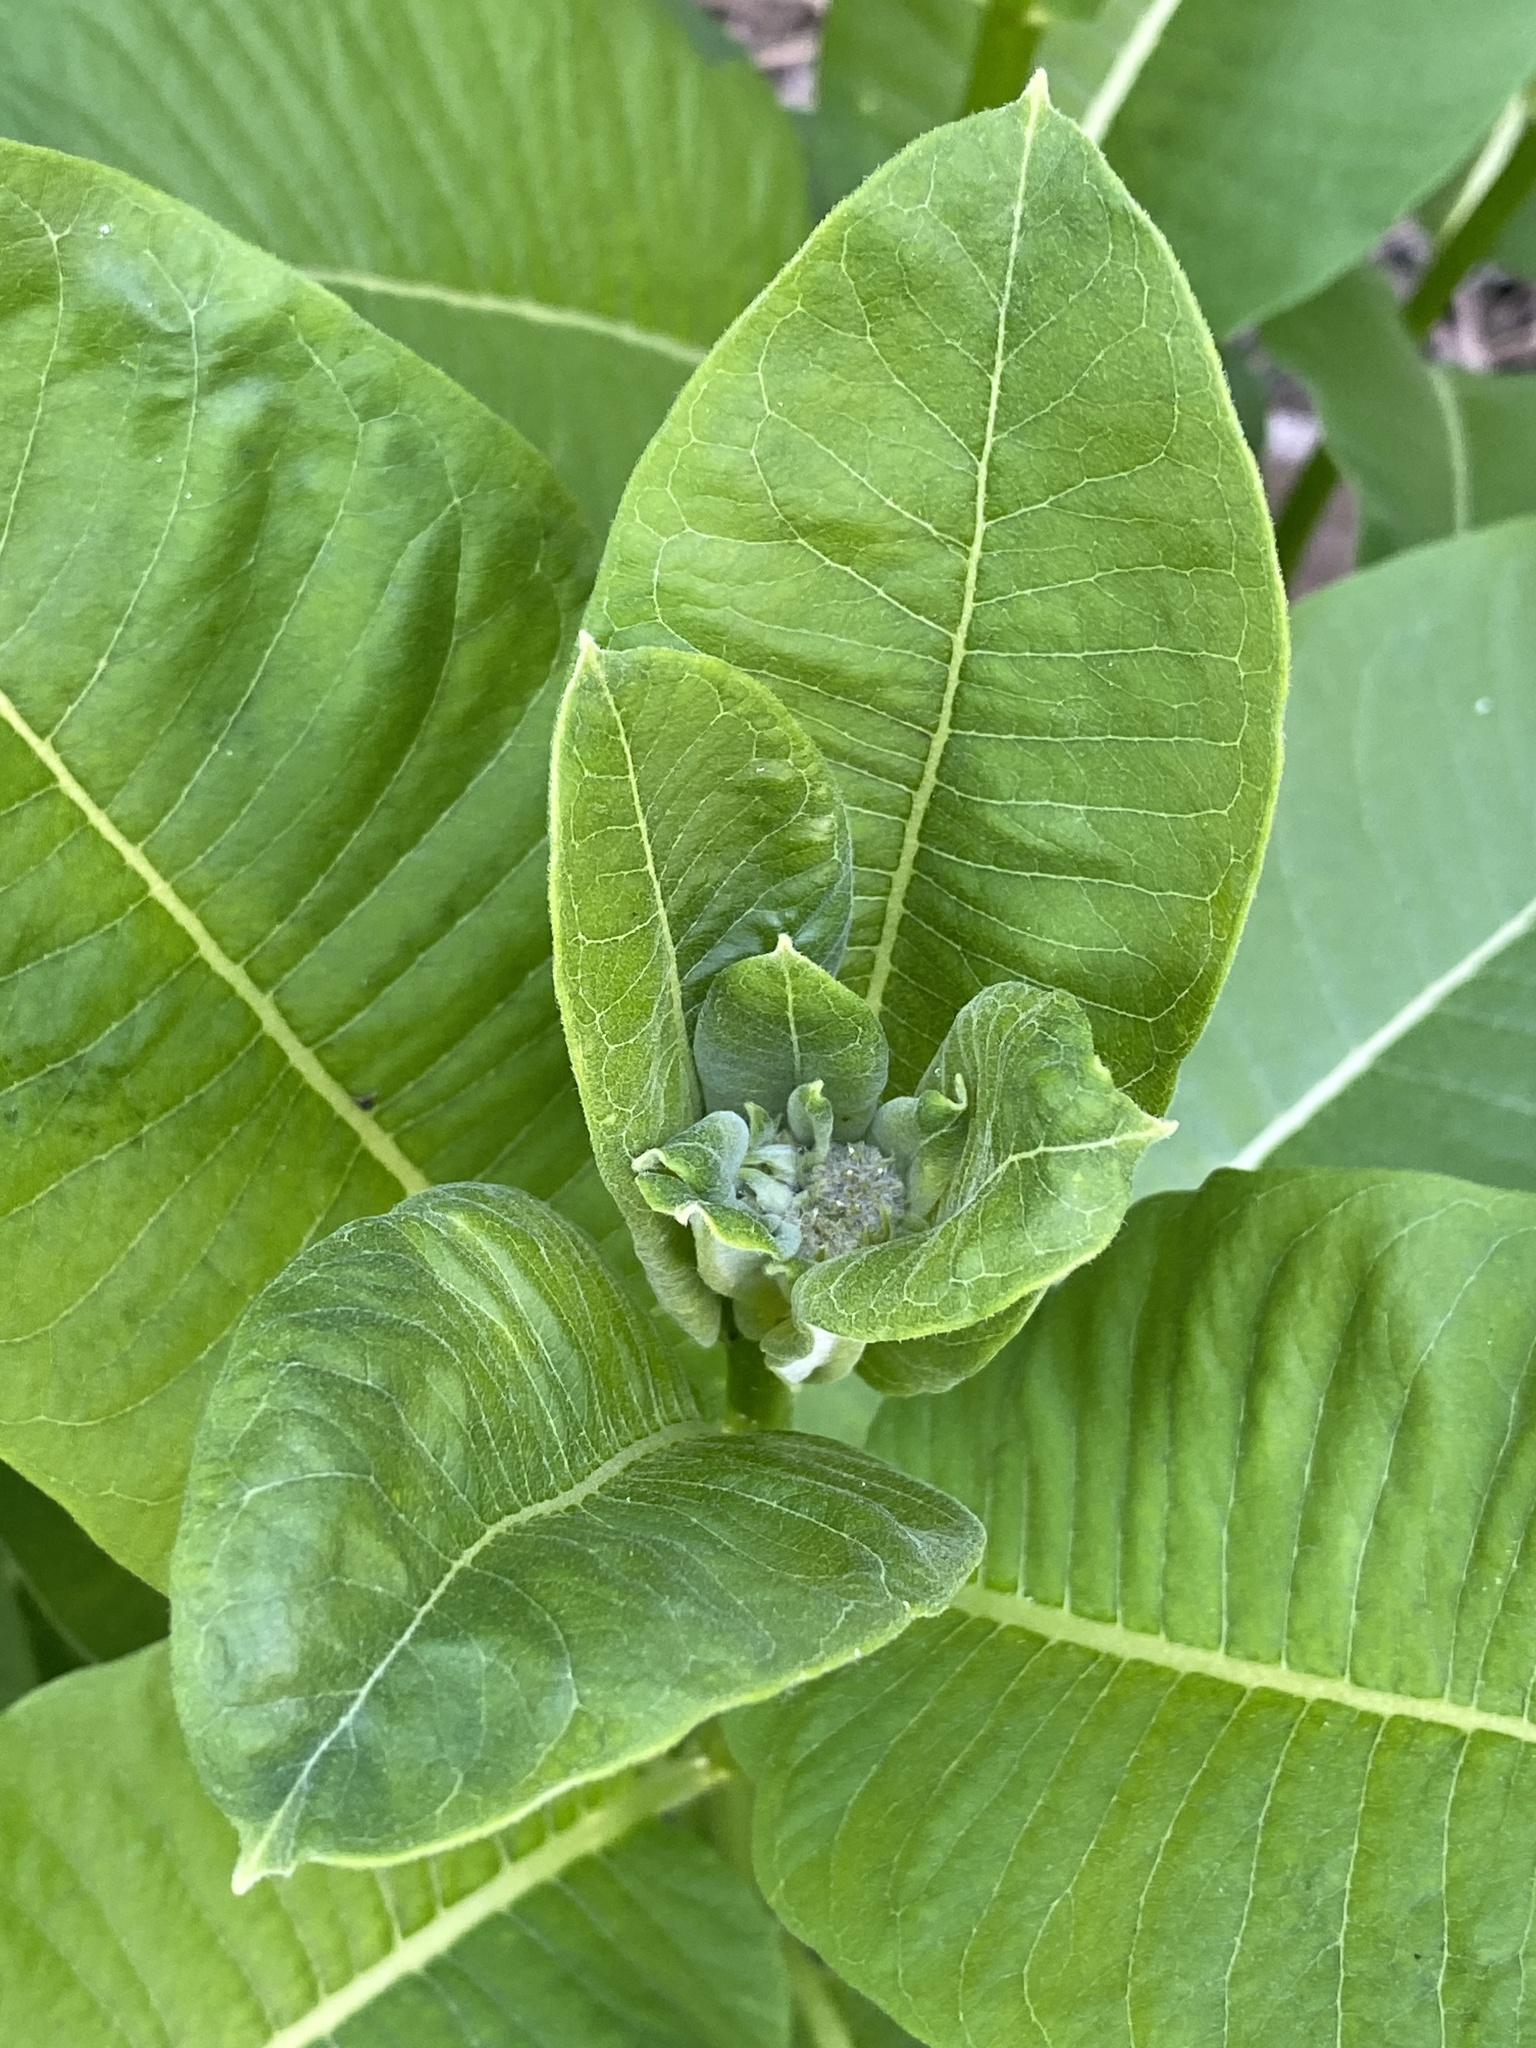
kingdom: Plantae
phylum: Tracheophyta
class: Magnoliopsida
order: Gentianales
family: Apocynaceae
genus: Asclepias
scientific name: Asclepias syriaca
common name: Common milkweed
